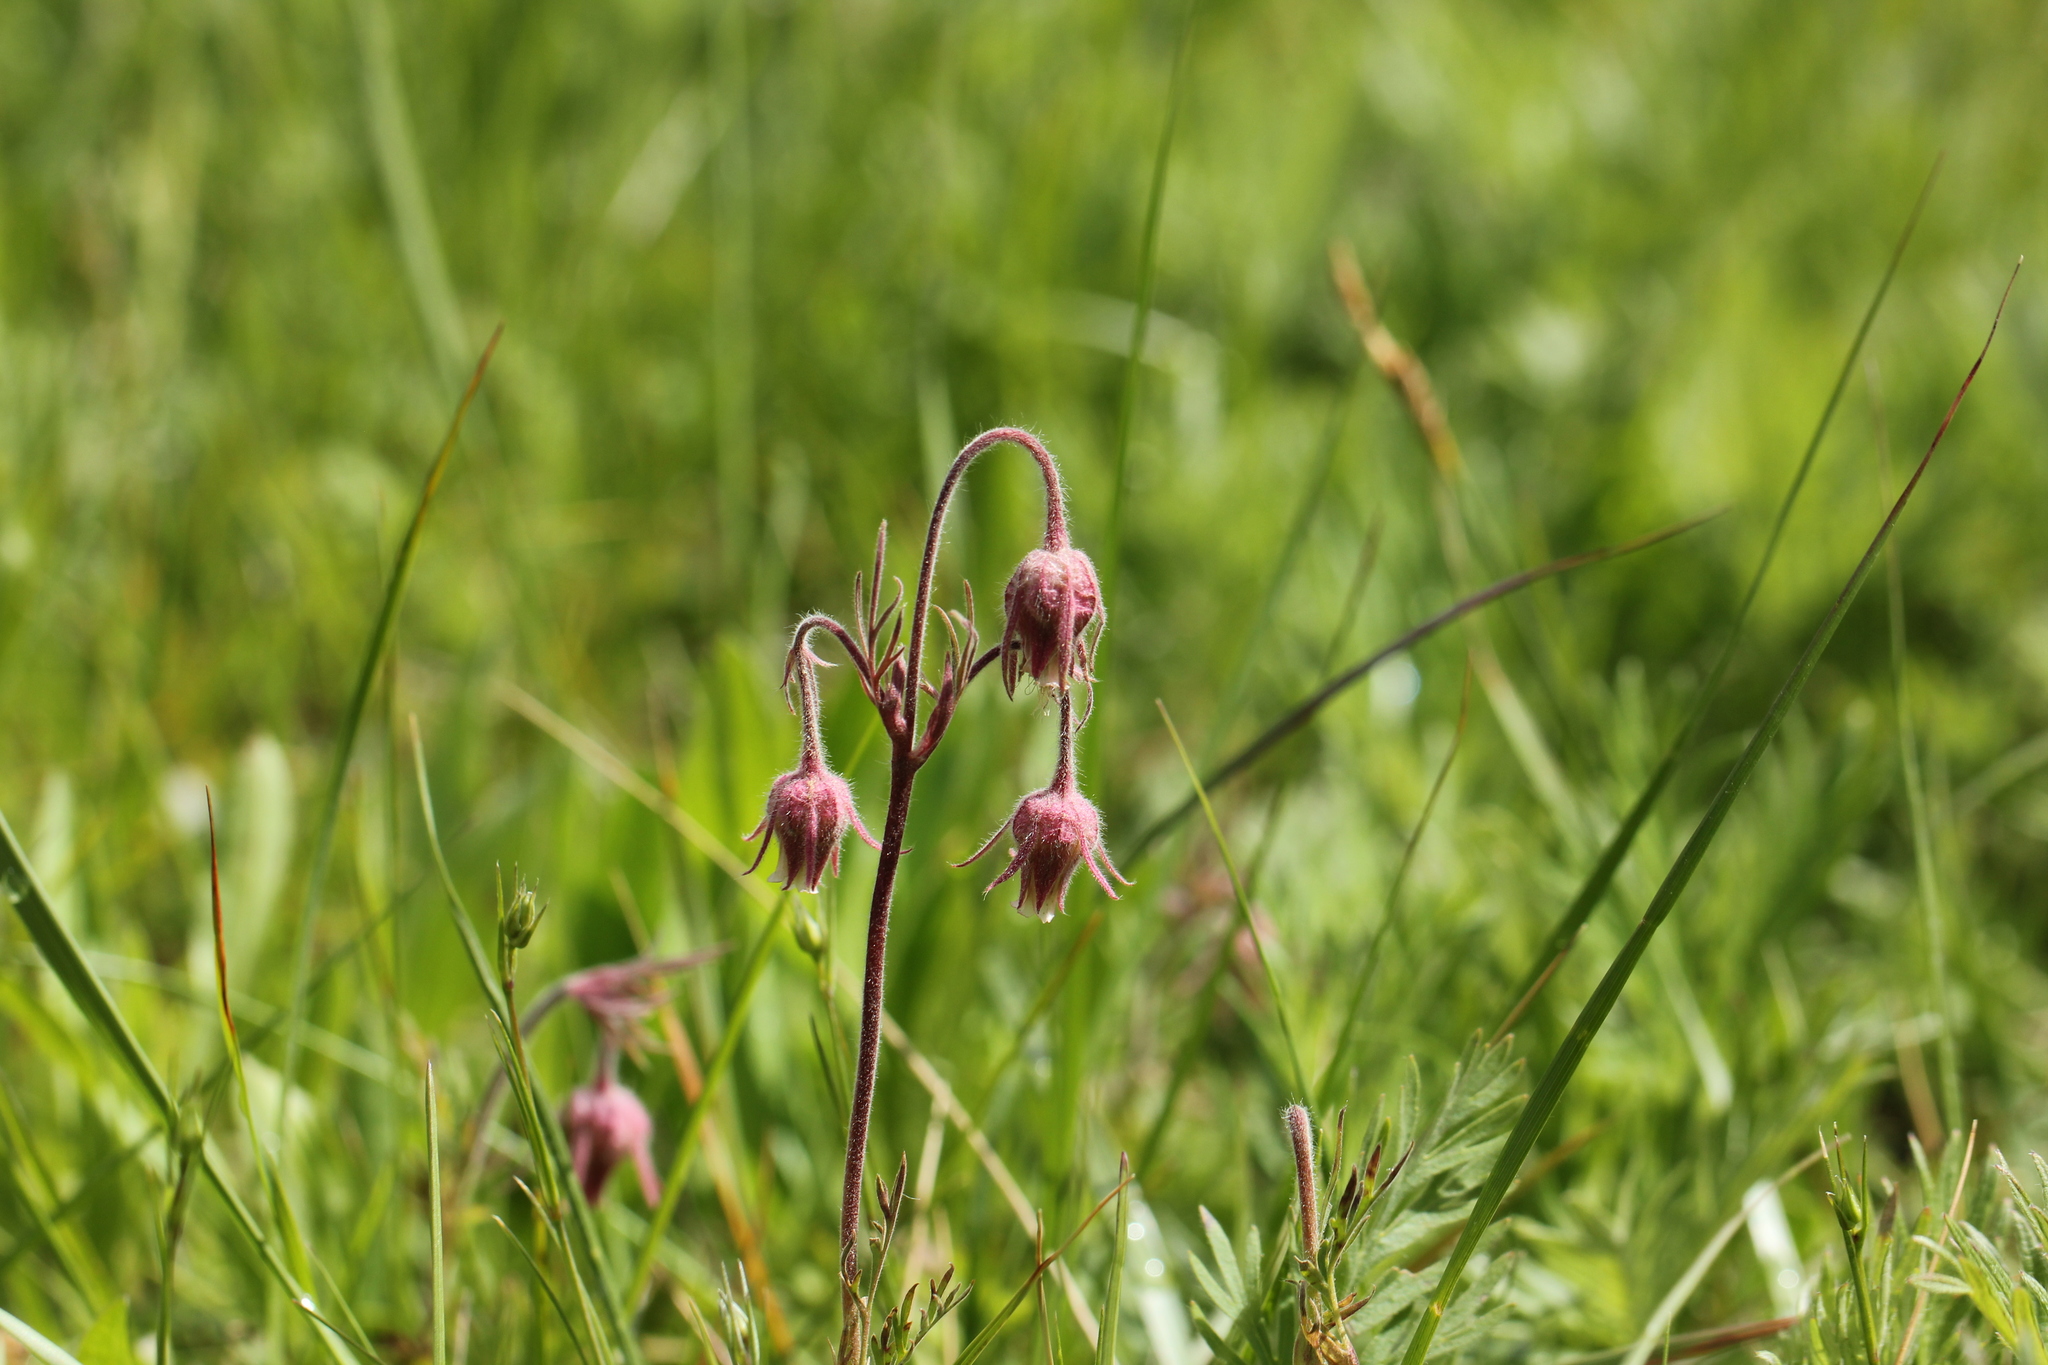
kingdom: Plantae
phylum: Tracheophyta
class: Magnoliopsida
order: Rosales
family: Rosaceae
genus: Geum
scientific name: Geum triflorum
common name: Old man's whiskers
